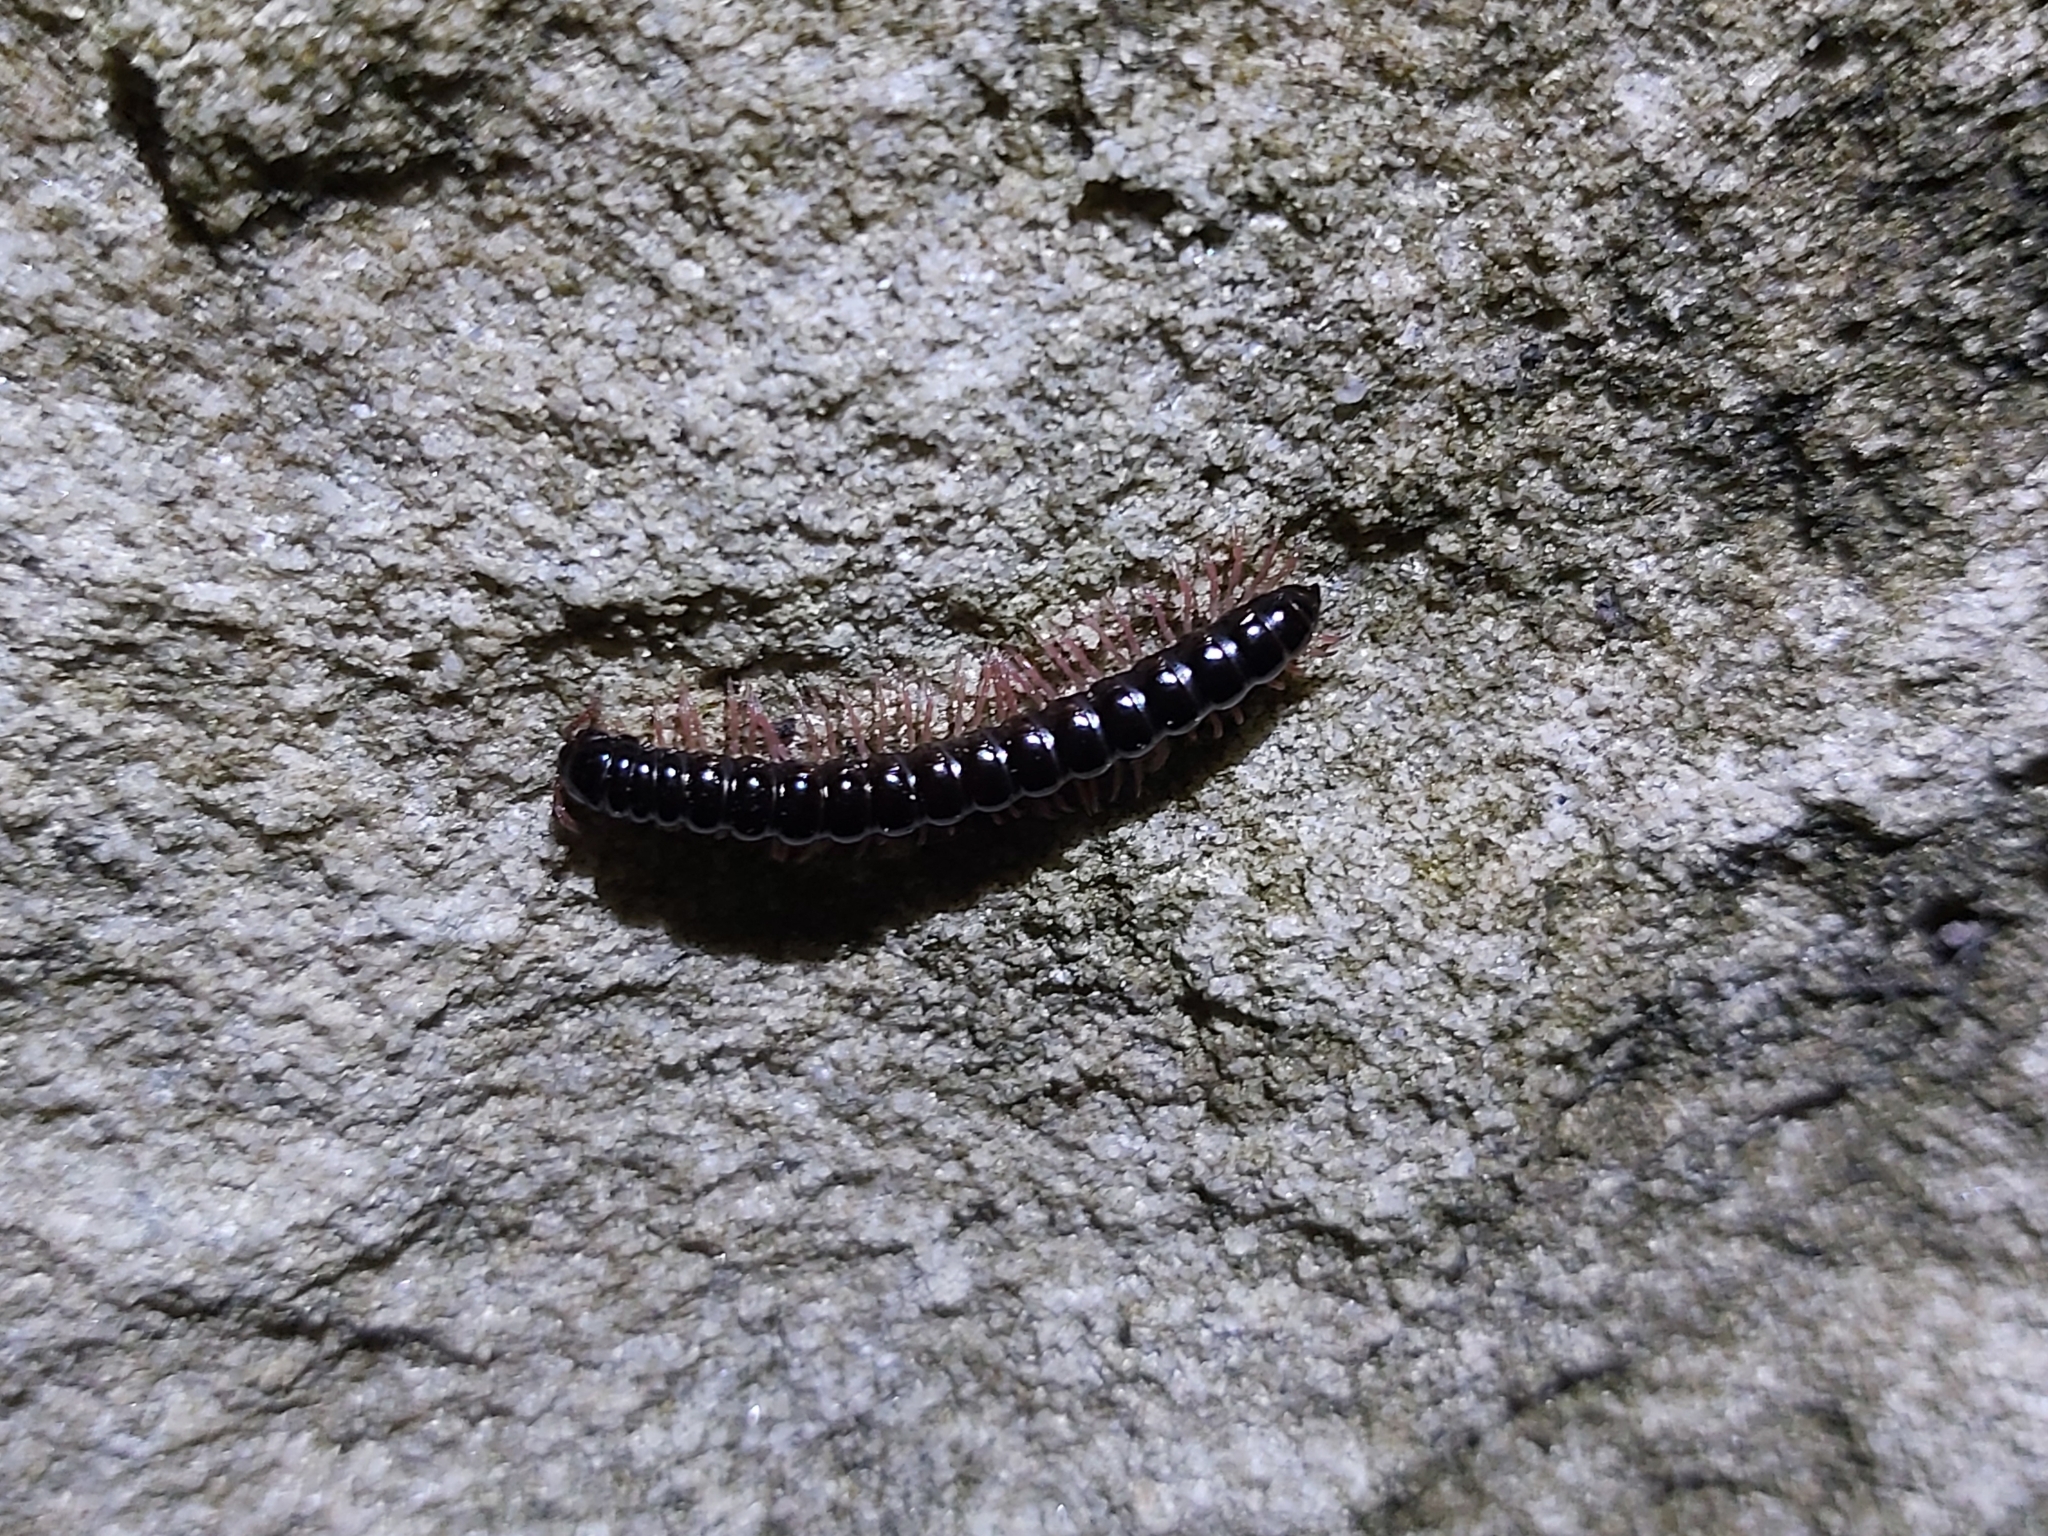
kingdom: Animalia
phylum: Arthropoda
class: Diplopoda
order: Polydesmida
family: Paradoxosomatidae
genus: Heterocladosoma
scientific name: Heterocladosoma
